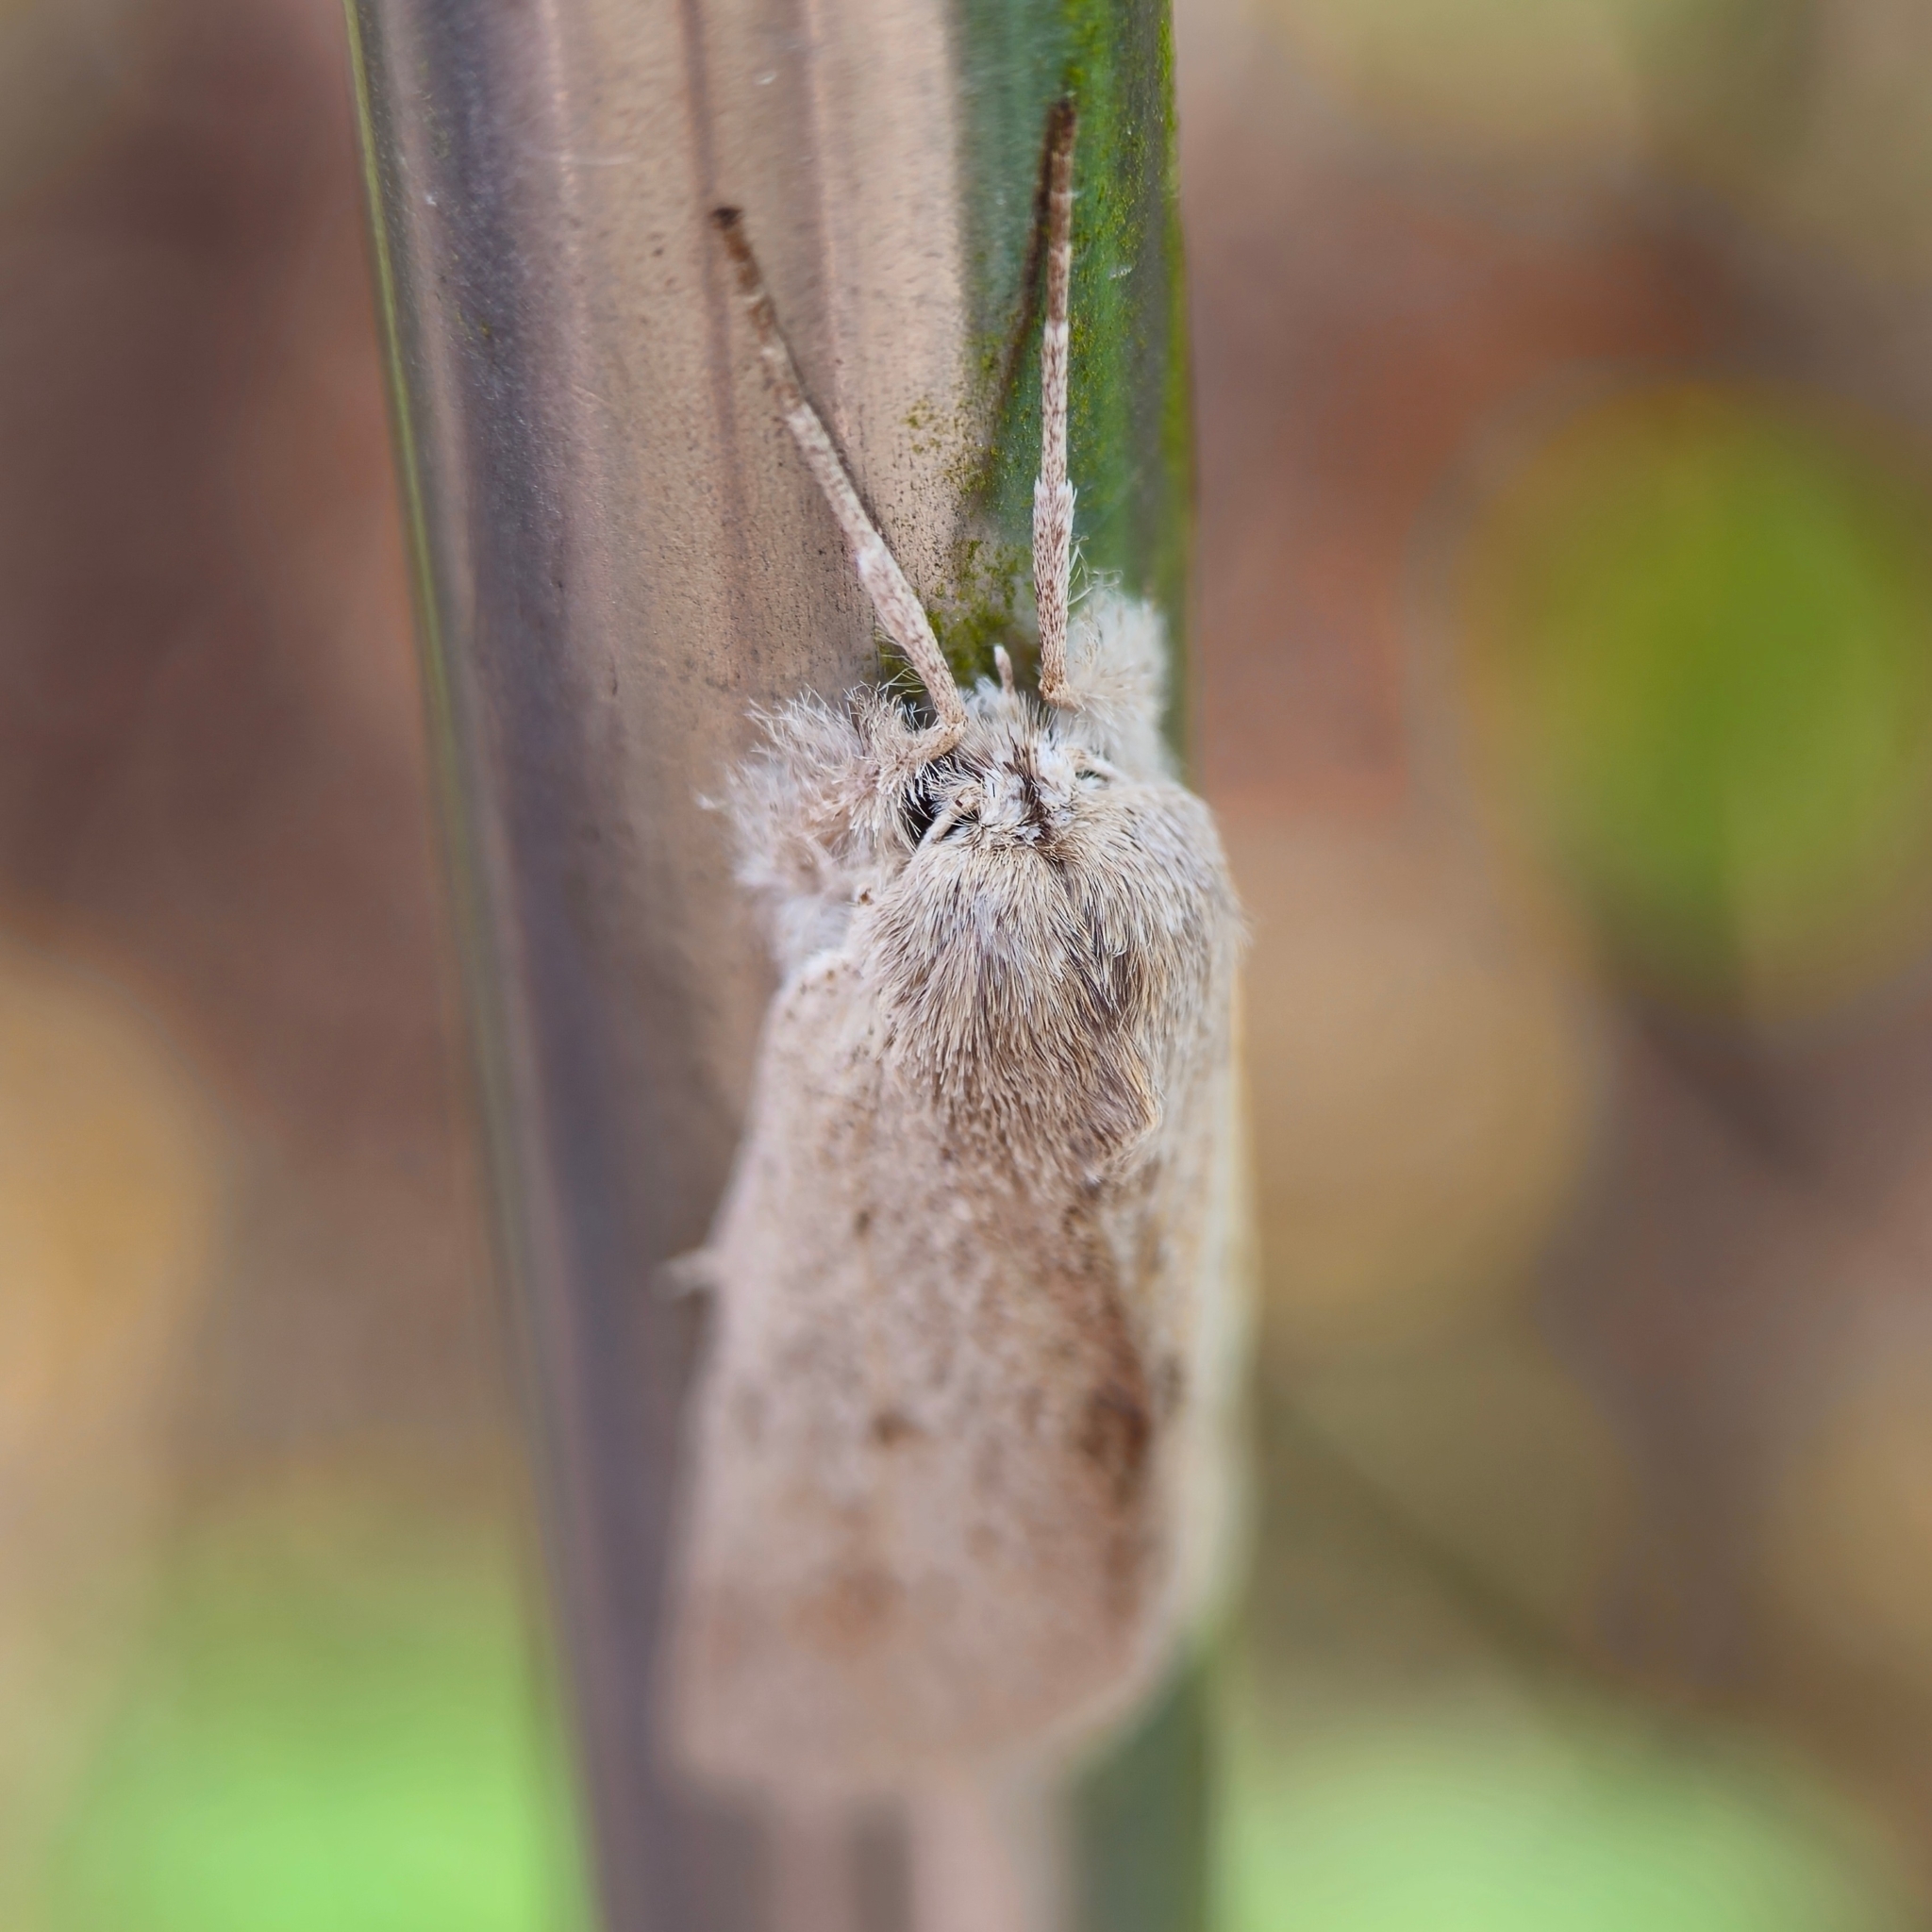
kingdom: Animalia
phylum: Arthropoda
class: Insecta
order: Lepidoptera
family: Geometridae
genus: Declana
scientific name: Declana leptomera
